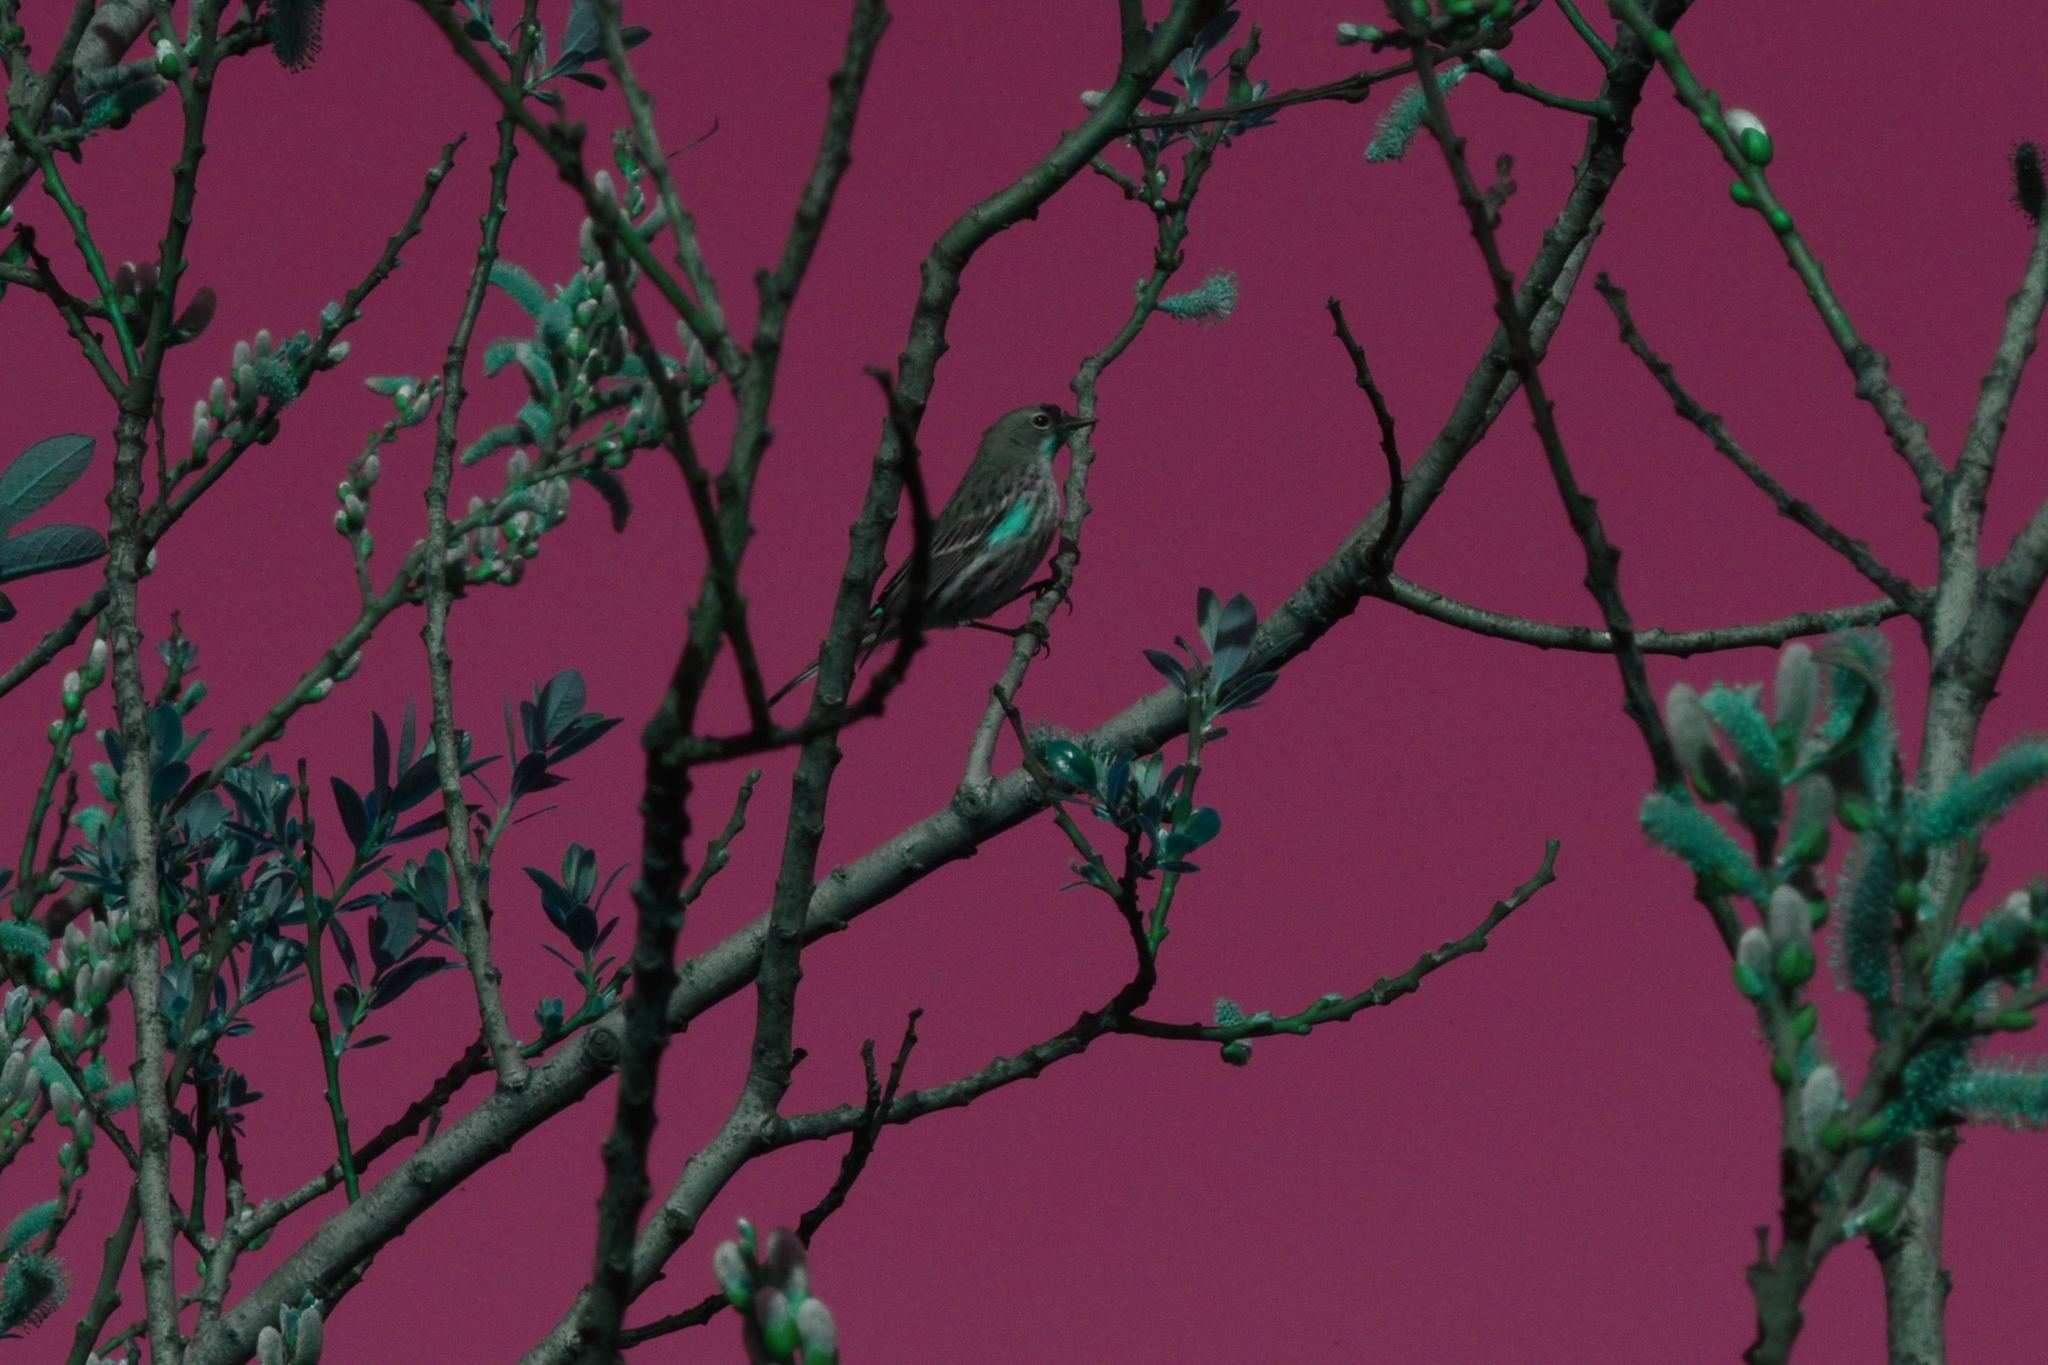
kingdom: Animalia
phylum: Chordata
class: Aves
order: Passeriformes
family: Parulidae
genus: Setophaga
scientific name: Setophaga coronata
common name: Myrtle warbler
